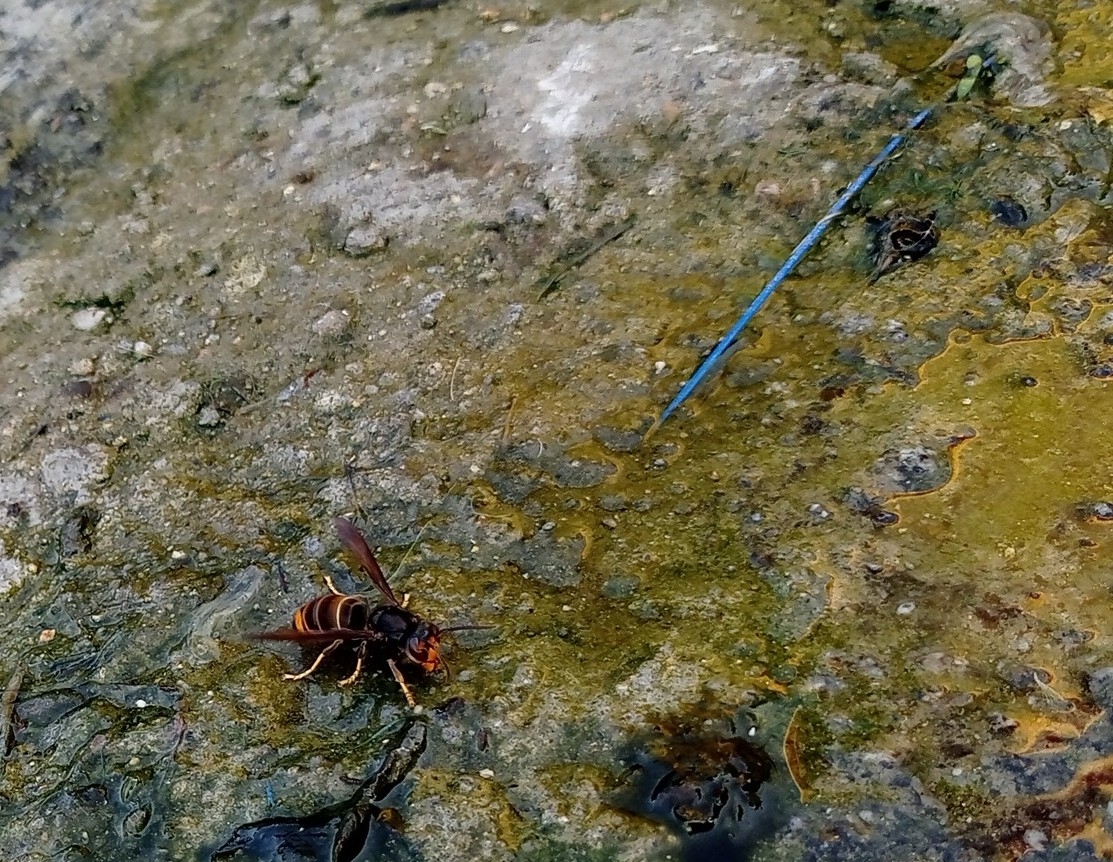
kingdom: Animalia
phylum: Arthropoda
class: Insecta
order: Hymenoptera
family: Vespidae
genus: Vespa
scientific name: Vespa velutina
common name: Asian hornet
